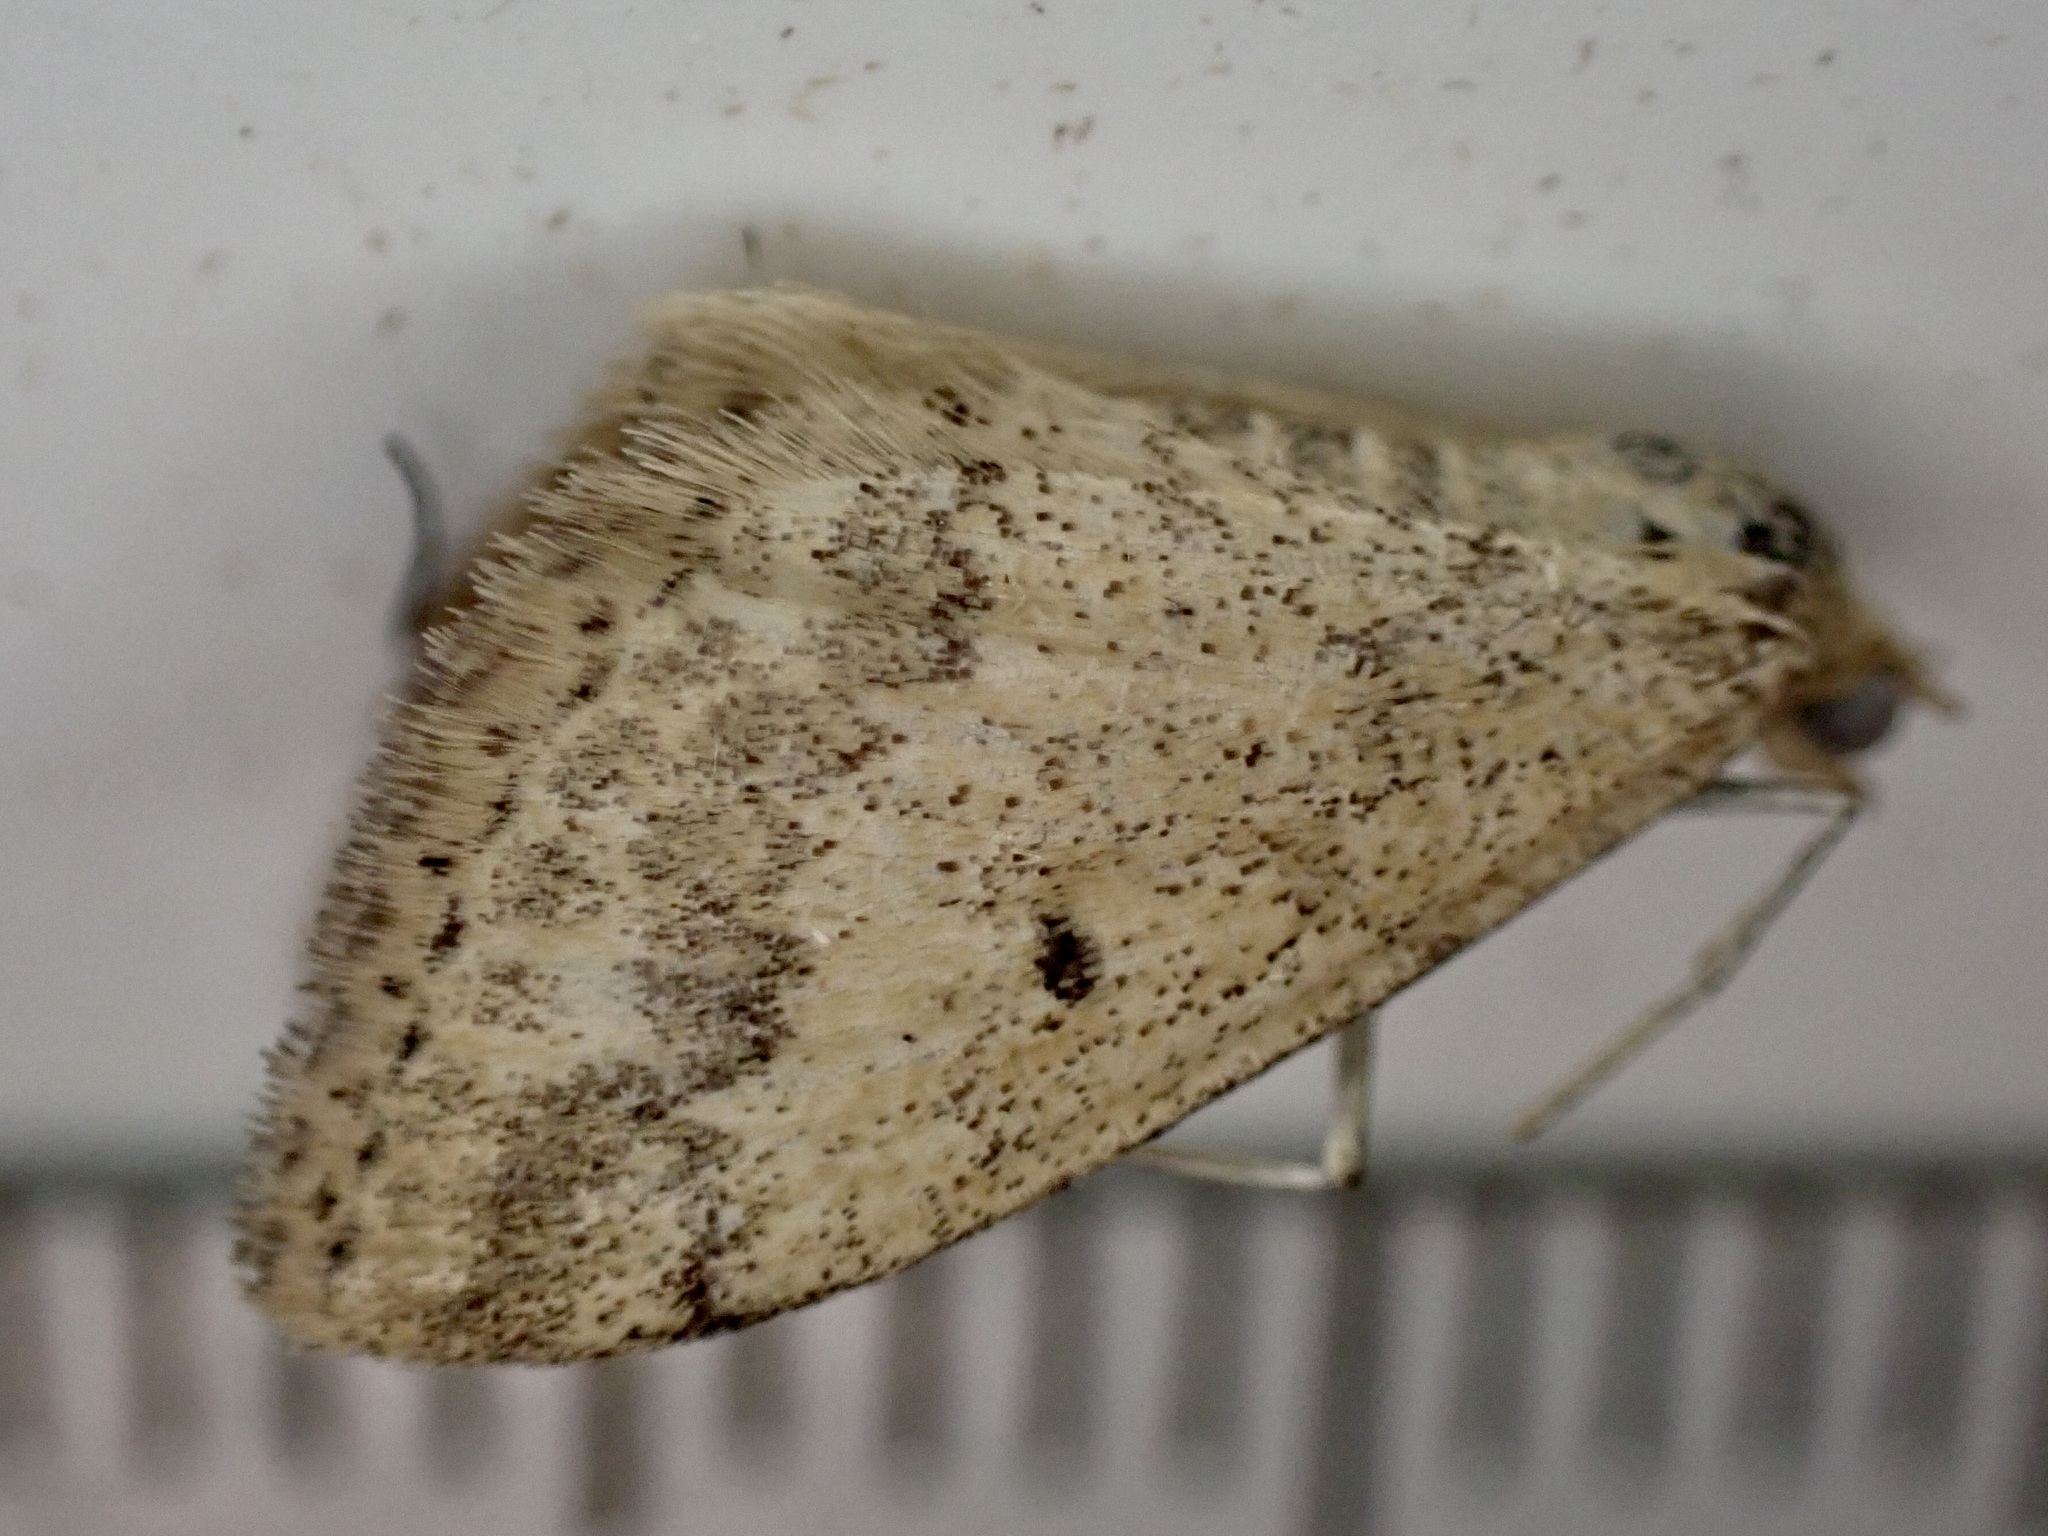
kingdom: Animalia
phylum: Arthropoda
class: Insecta
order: Lepidoptera
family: Geometridae
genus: Scopula
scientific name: Scopula rubraria
